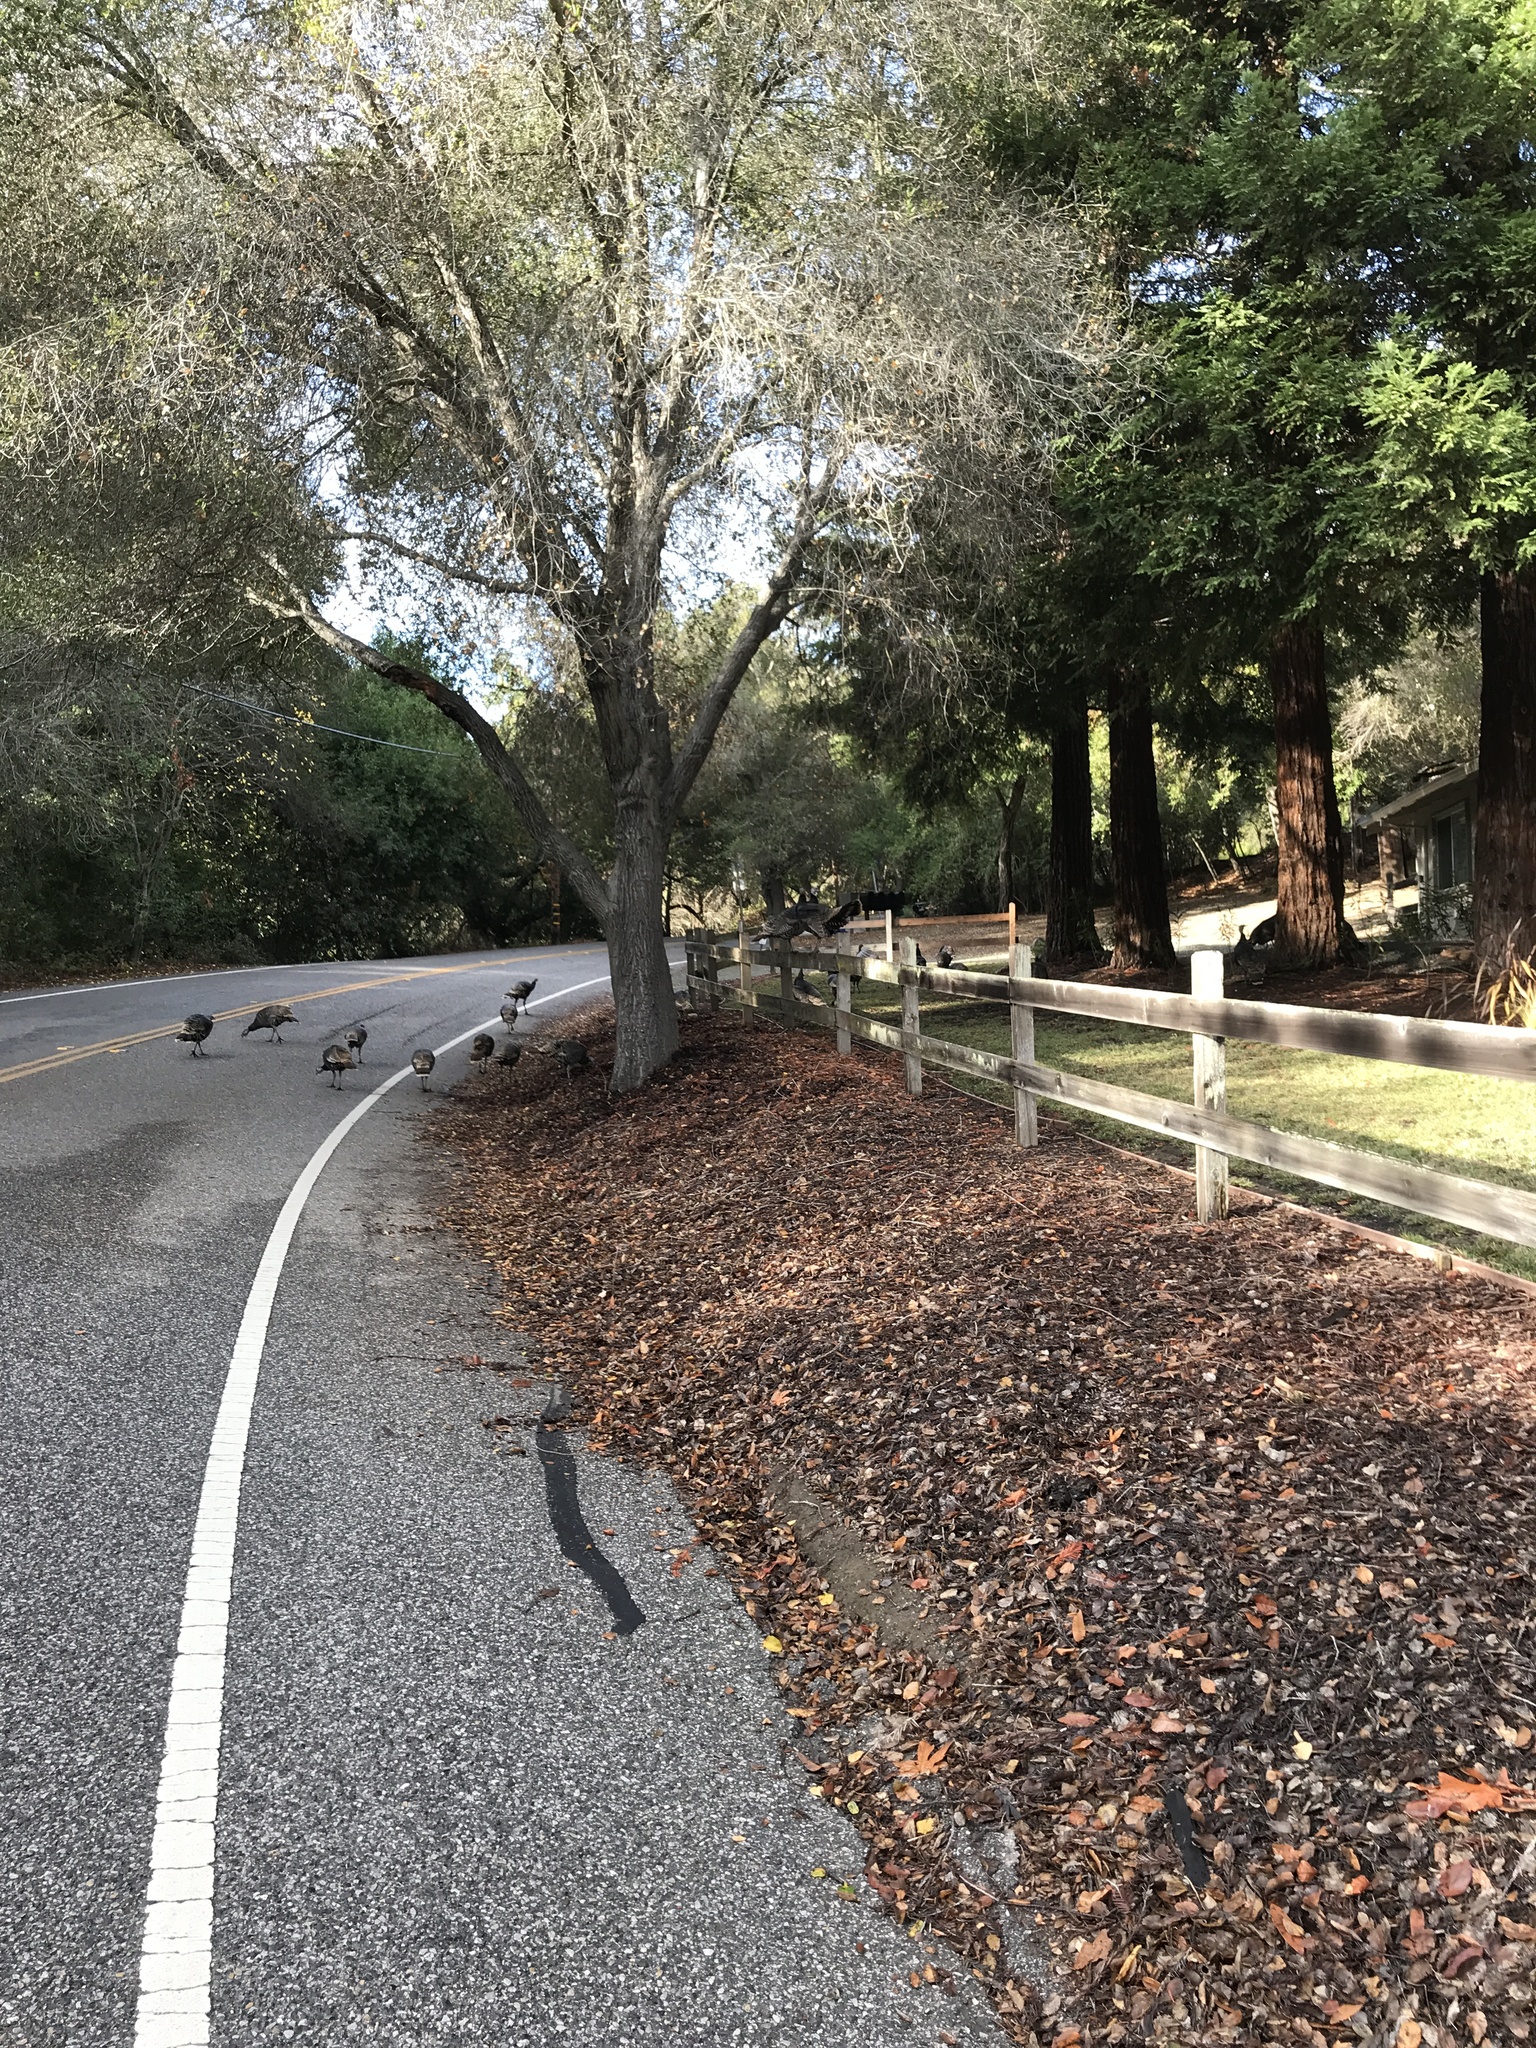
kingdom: Animalia
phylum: Chordata
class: Aves
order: Galliformes
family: Phasianidae
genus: Meleagris
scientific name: Meleagris gallopavo
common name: Wild turkey
